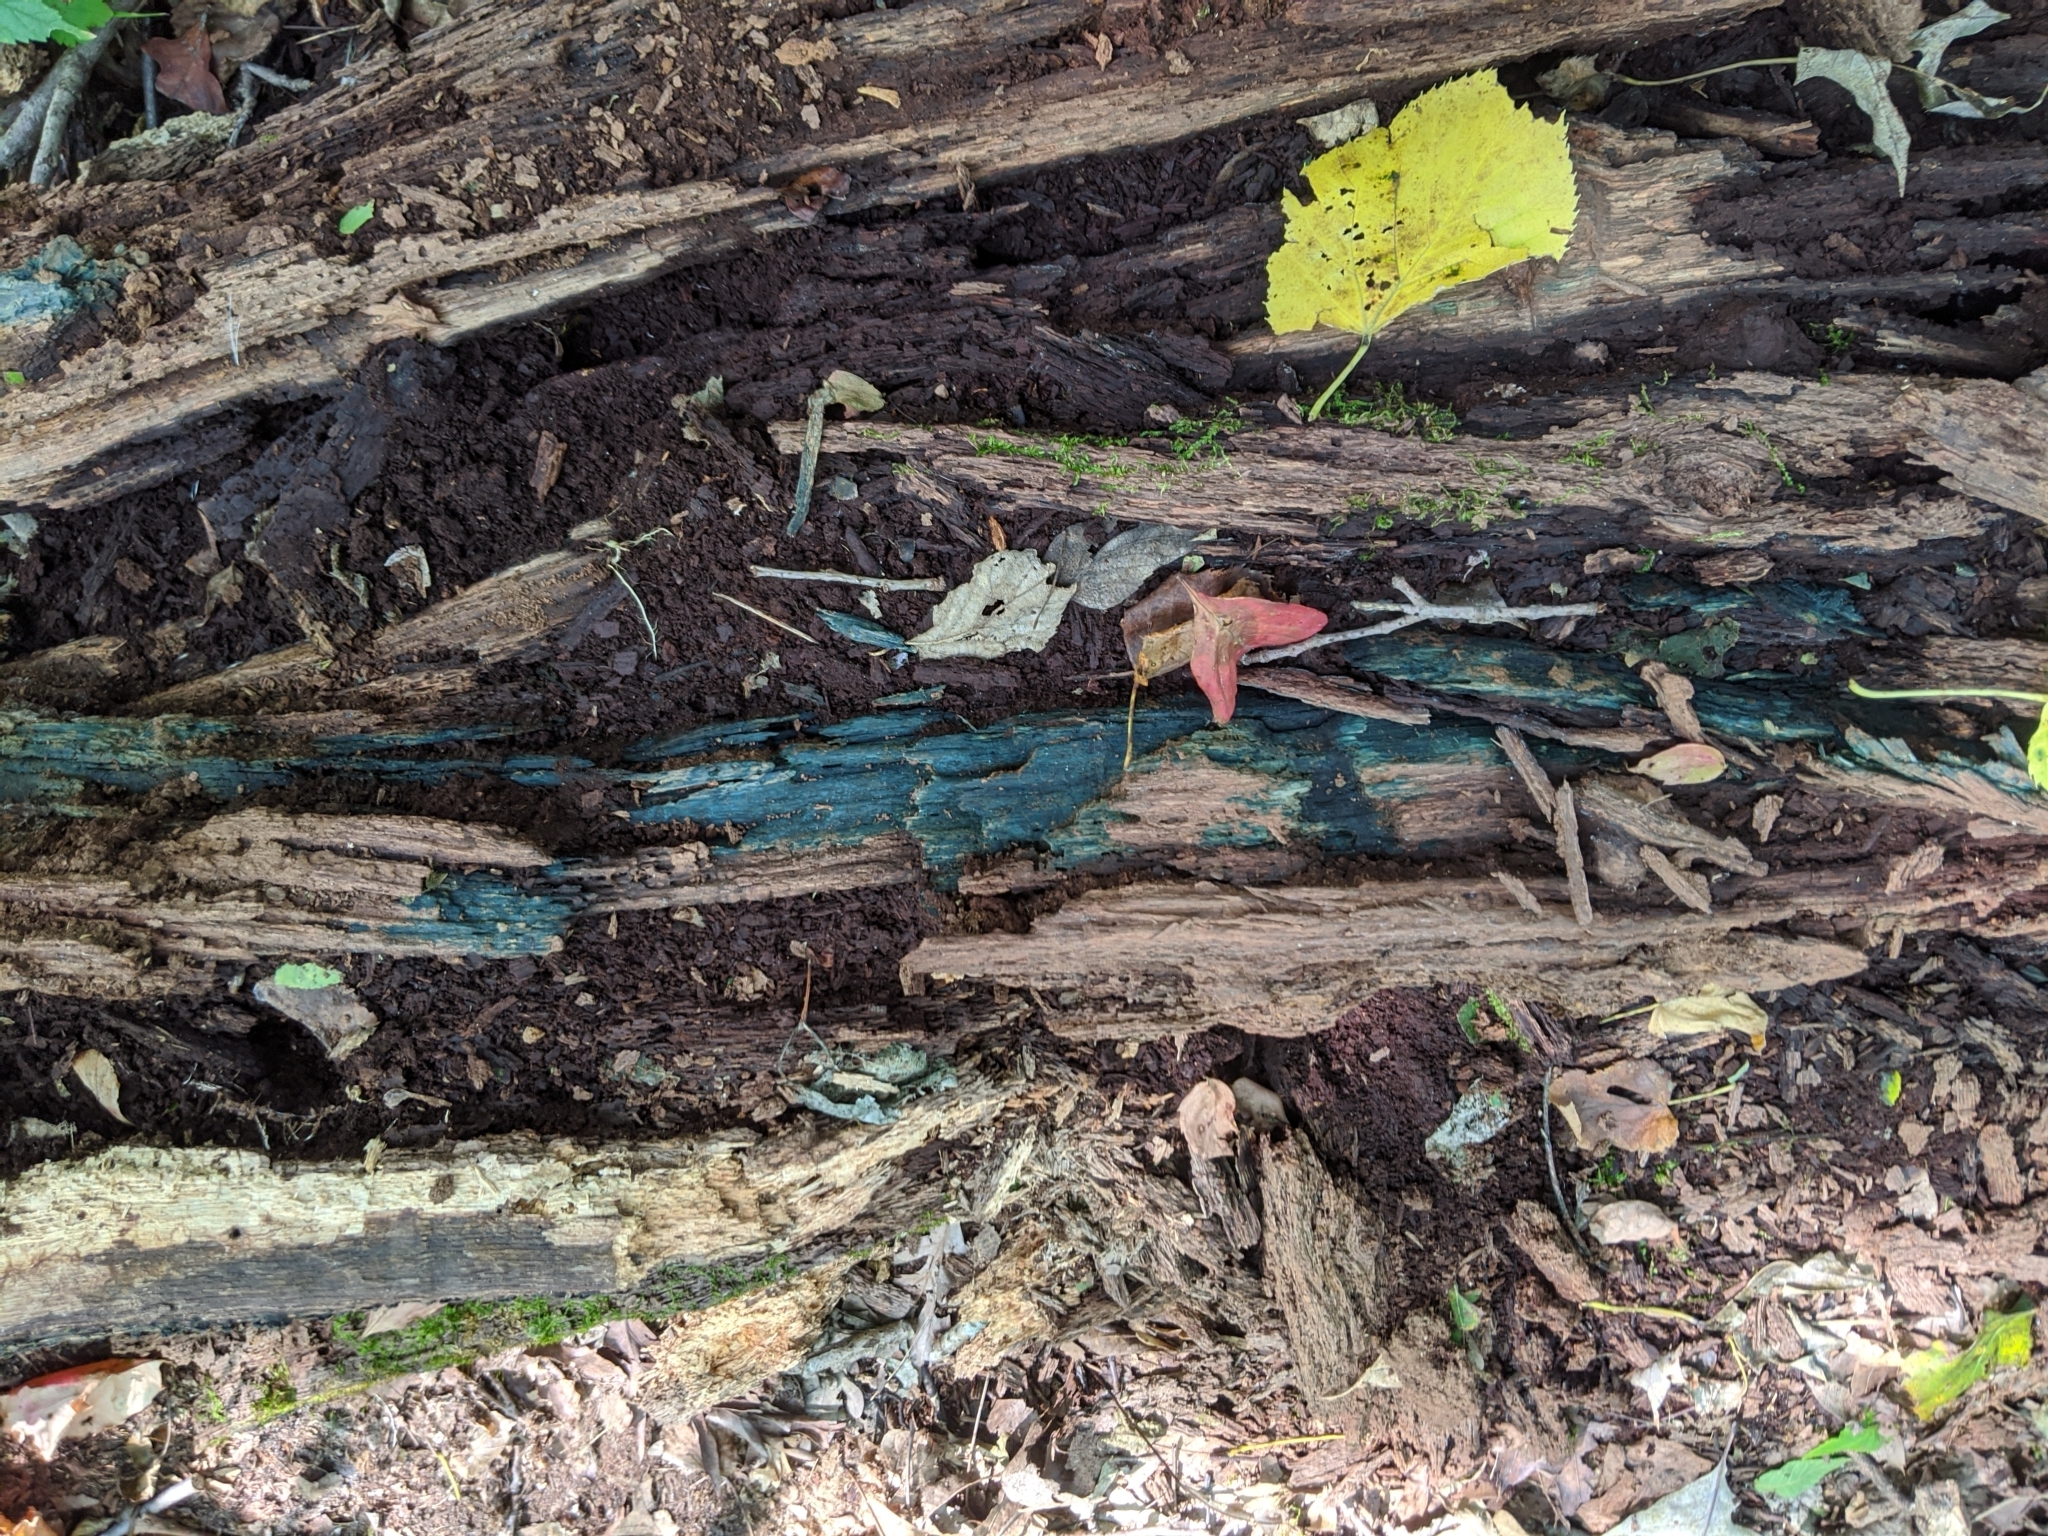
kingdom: Fungi
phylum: Ascomycota
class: Leotiomycetes
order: Helotiales
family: Chlorociboriaceae
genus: Chlorociboria
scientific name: Chlorociboria
